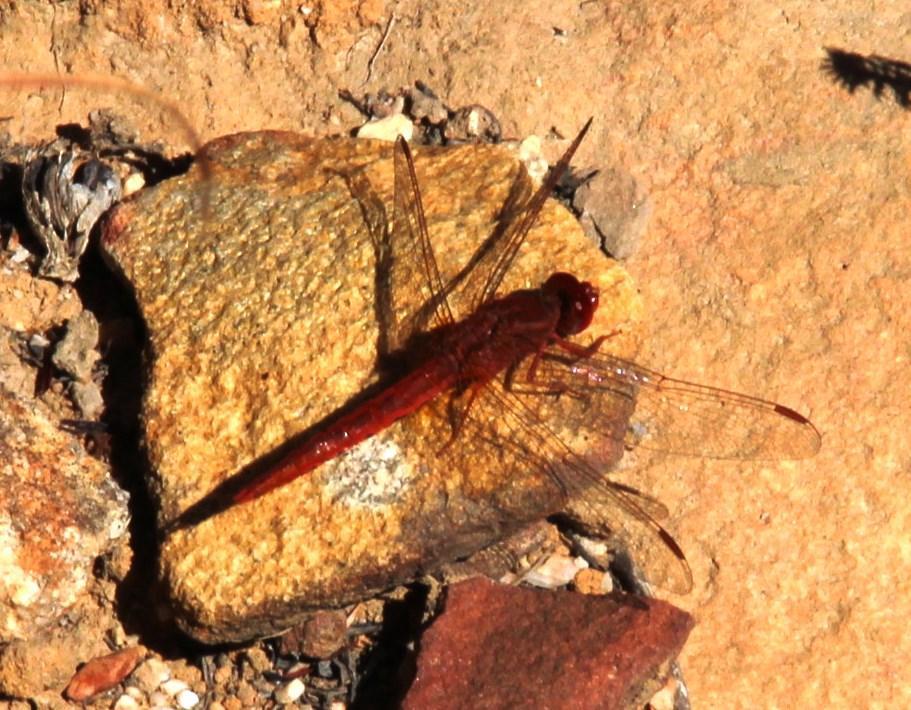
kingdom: Animalia
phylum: Arthropoda
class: Insecta
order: Odonata
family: Libellulidae
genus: Crocothemis
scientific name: Crocothemis sanguinolenta
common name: Little scarlet
